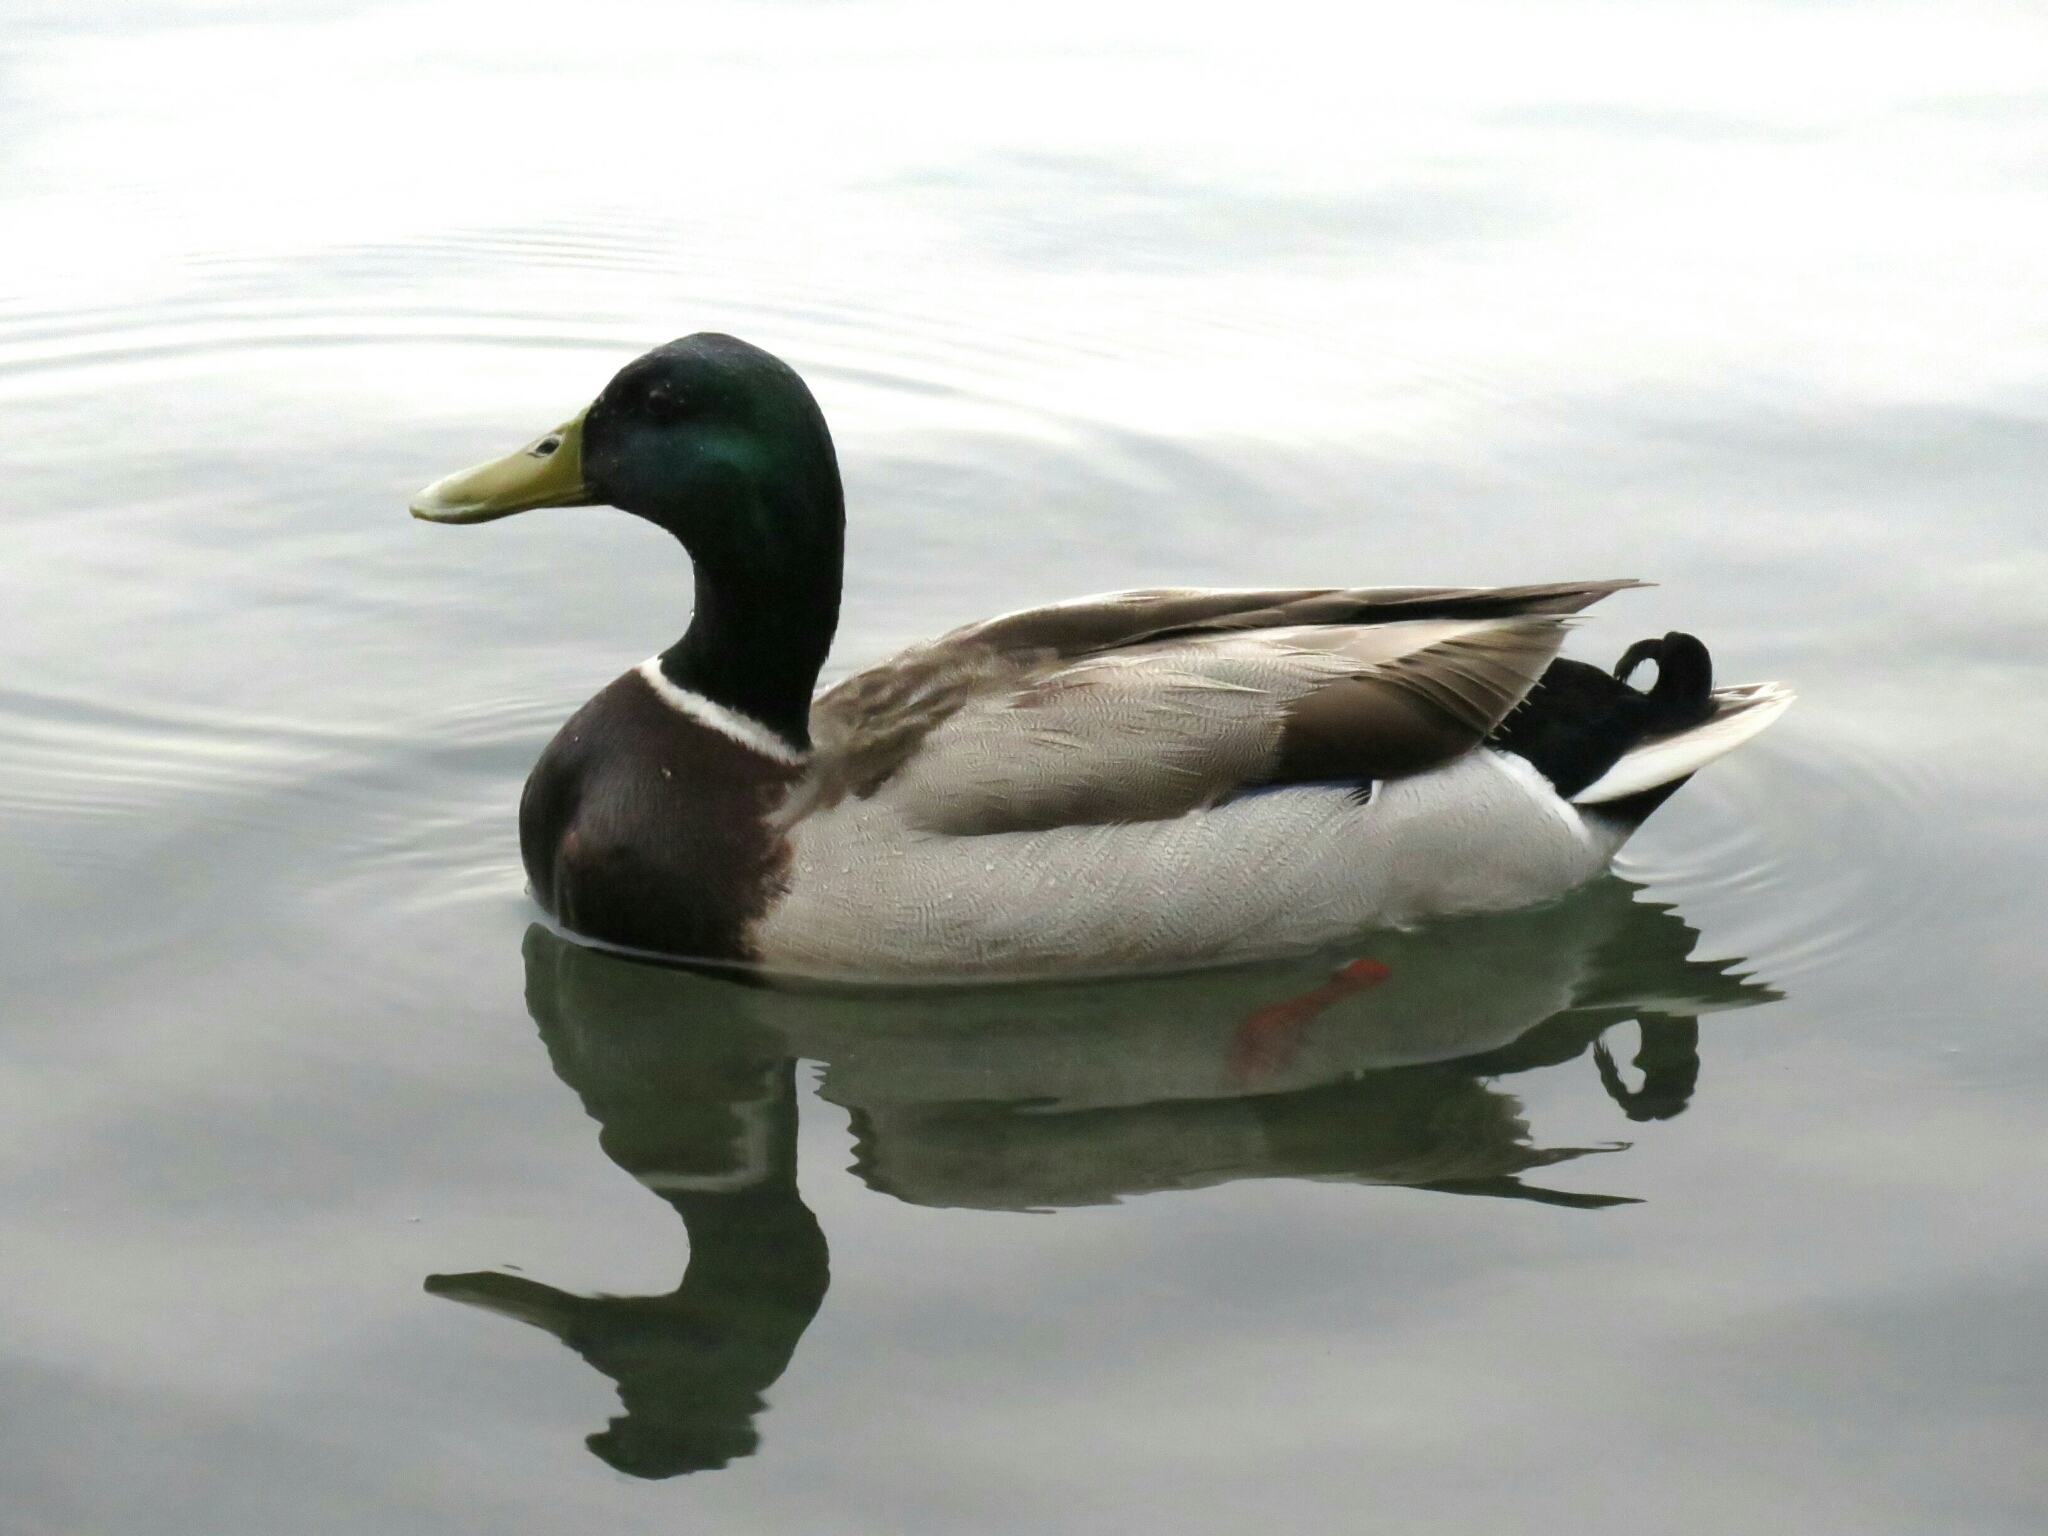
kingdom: Animalia
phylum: Chordata
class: Aves
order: Anseriformes
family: Anatidae
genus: Anas
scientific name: Anas platyrhynchos
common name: Mallard
